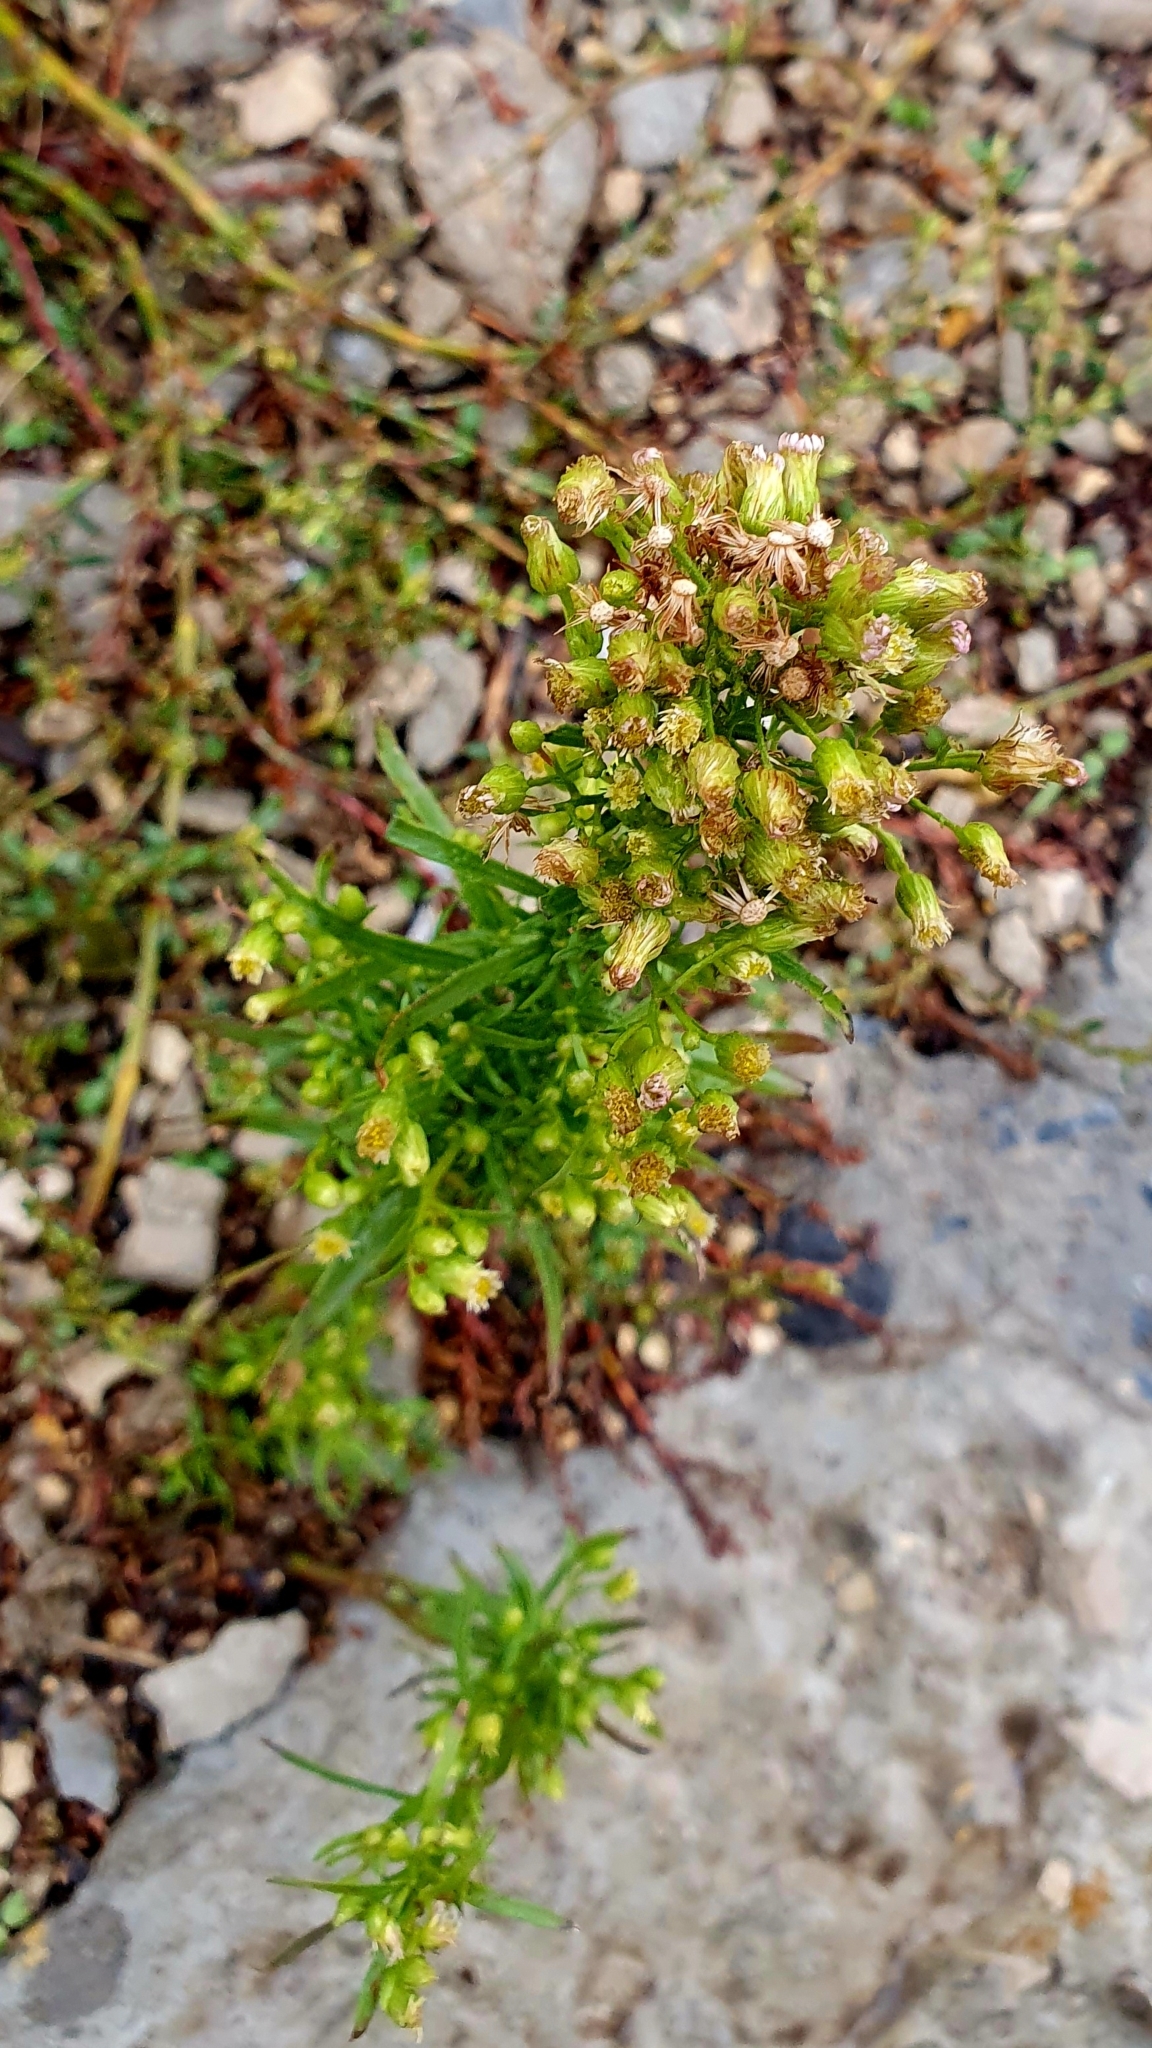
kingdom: Plantae
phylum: Tracheophyta
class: Magnoliopsida
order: Asterales
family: Asteraceae
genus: Erigeron
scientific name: Erigeron canadensis
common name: Canadian fleabane
